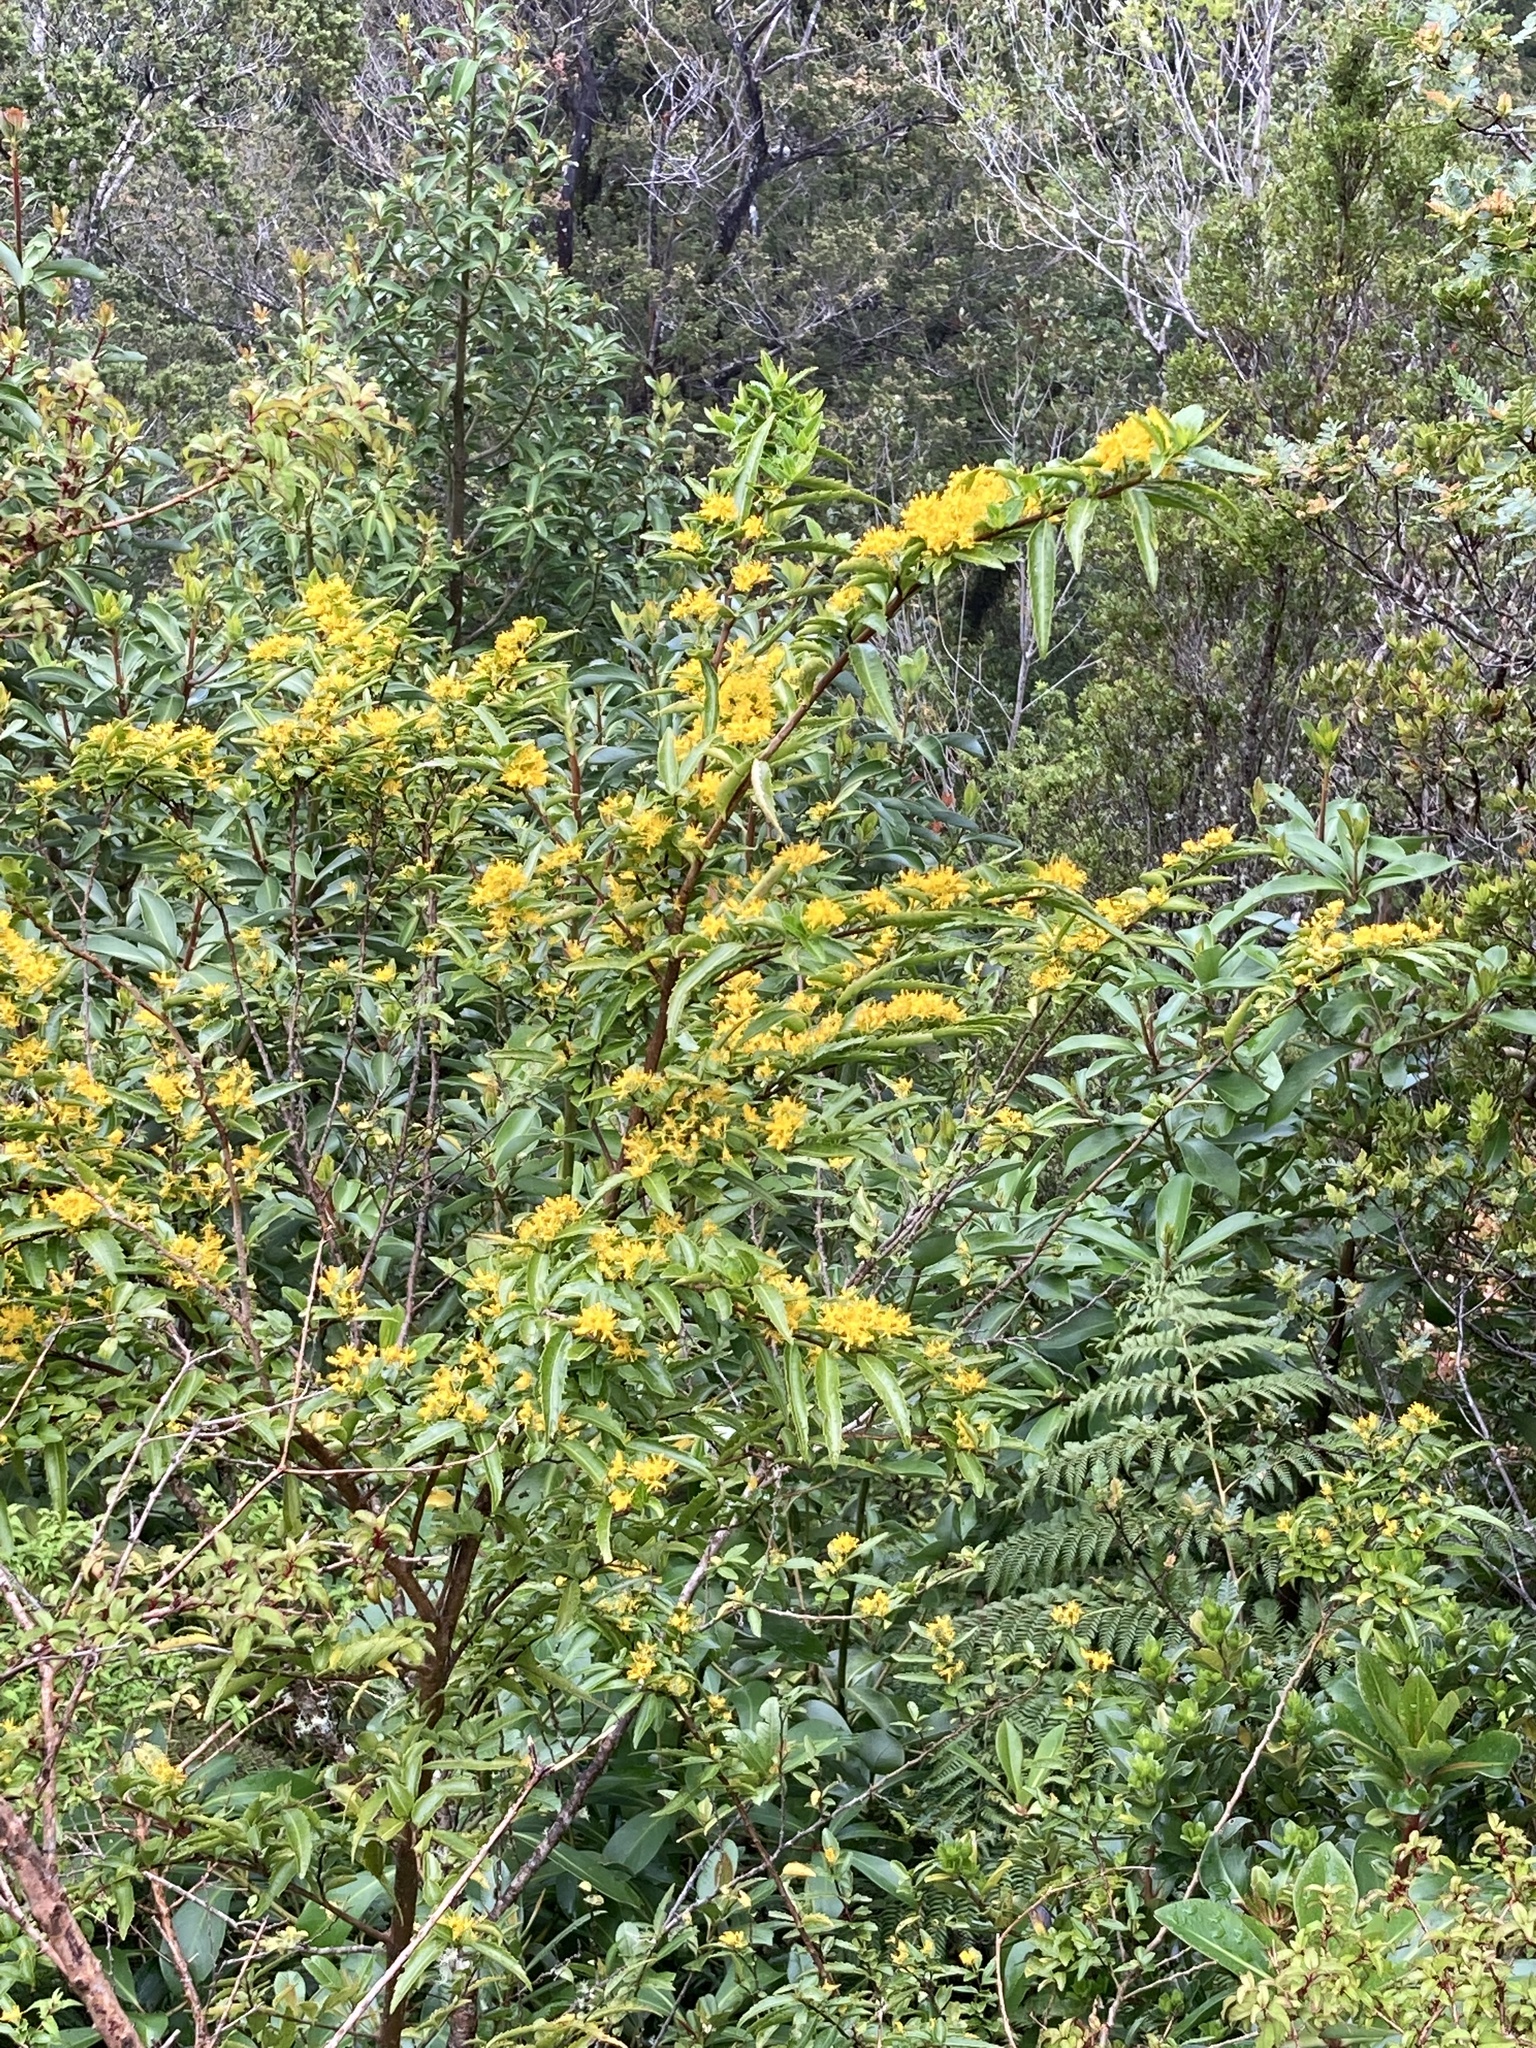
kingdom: Plantae
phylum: Tracheophyta
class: Magnoliopsida
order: Malpighiales
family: Salicaceae
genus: Azara
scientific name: Azara lanceolata
